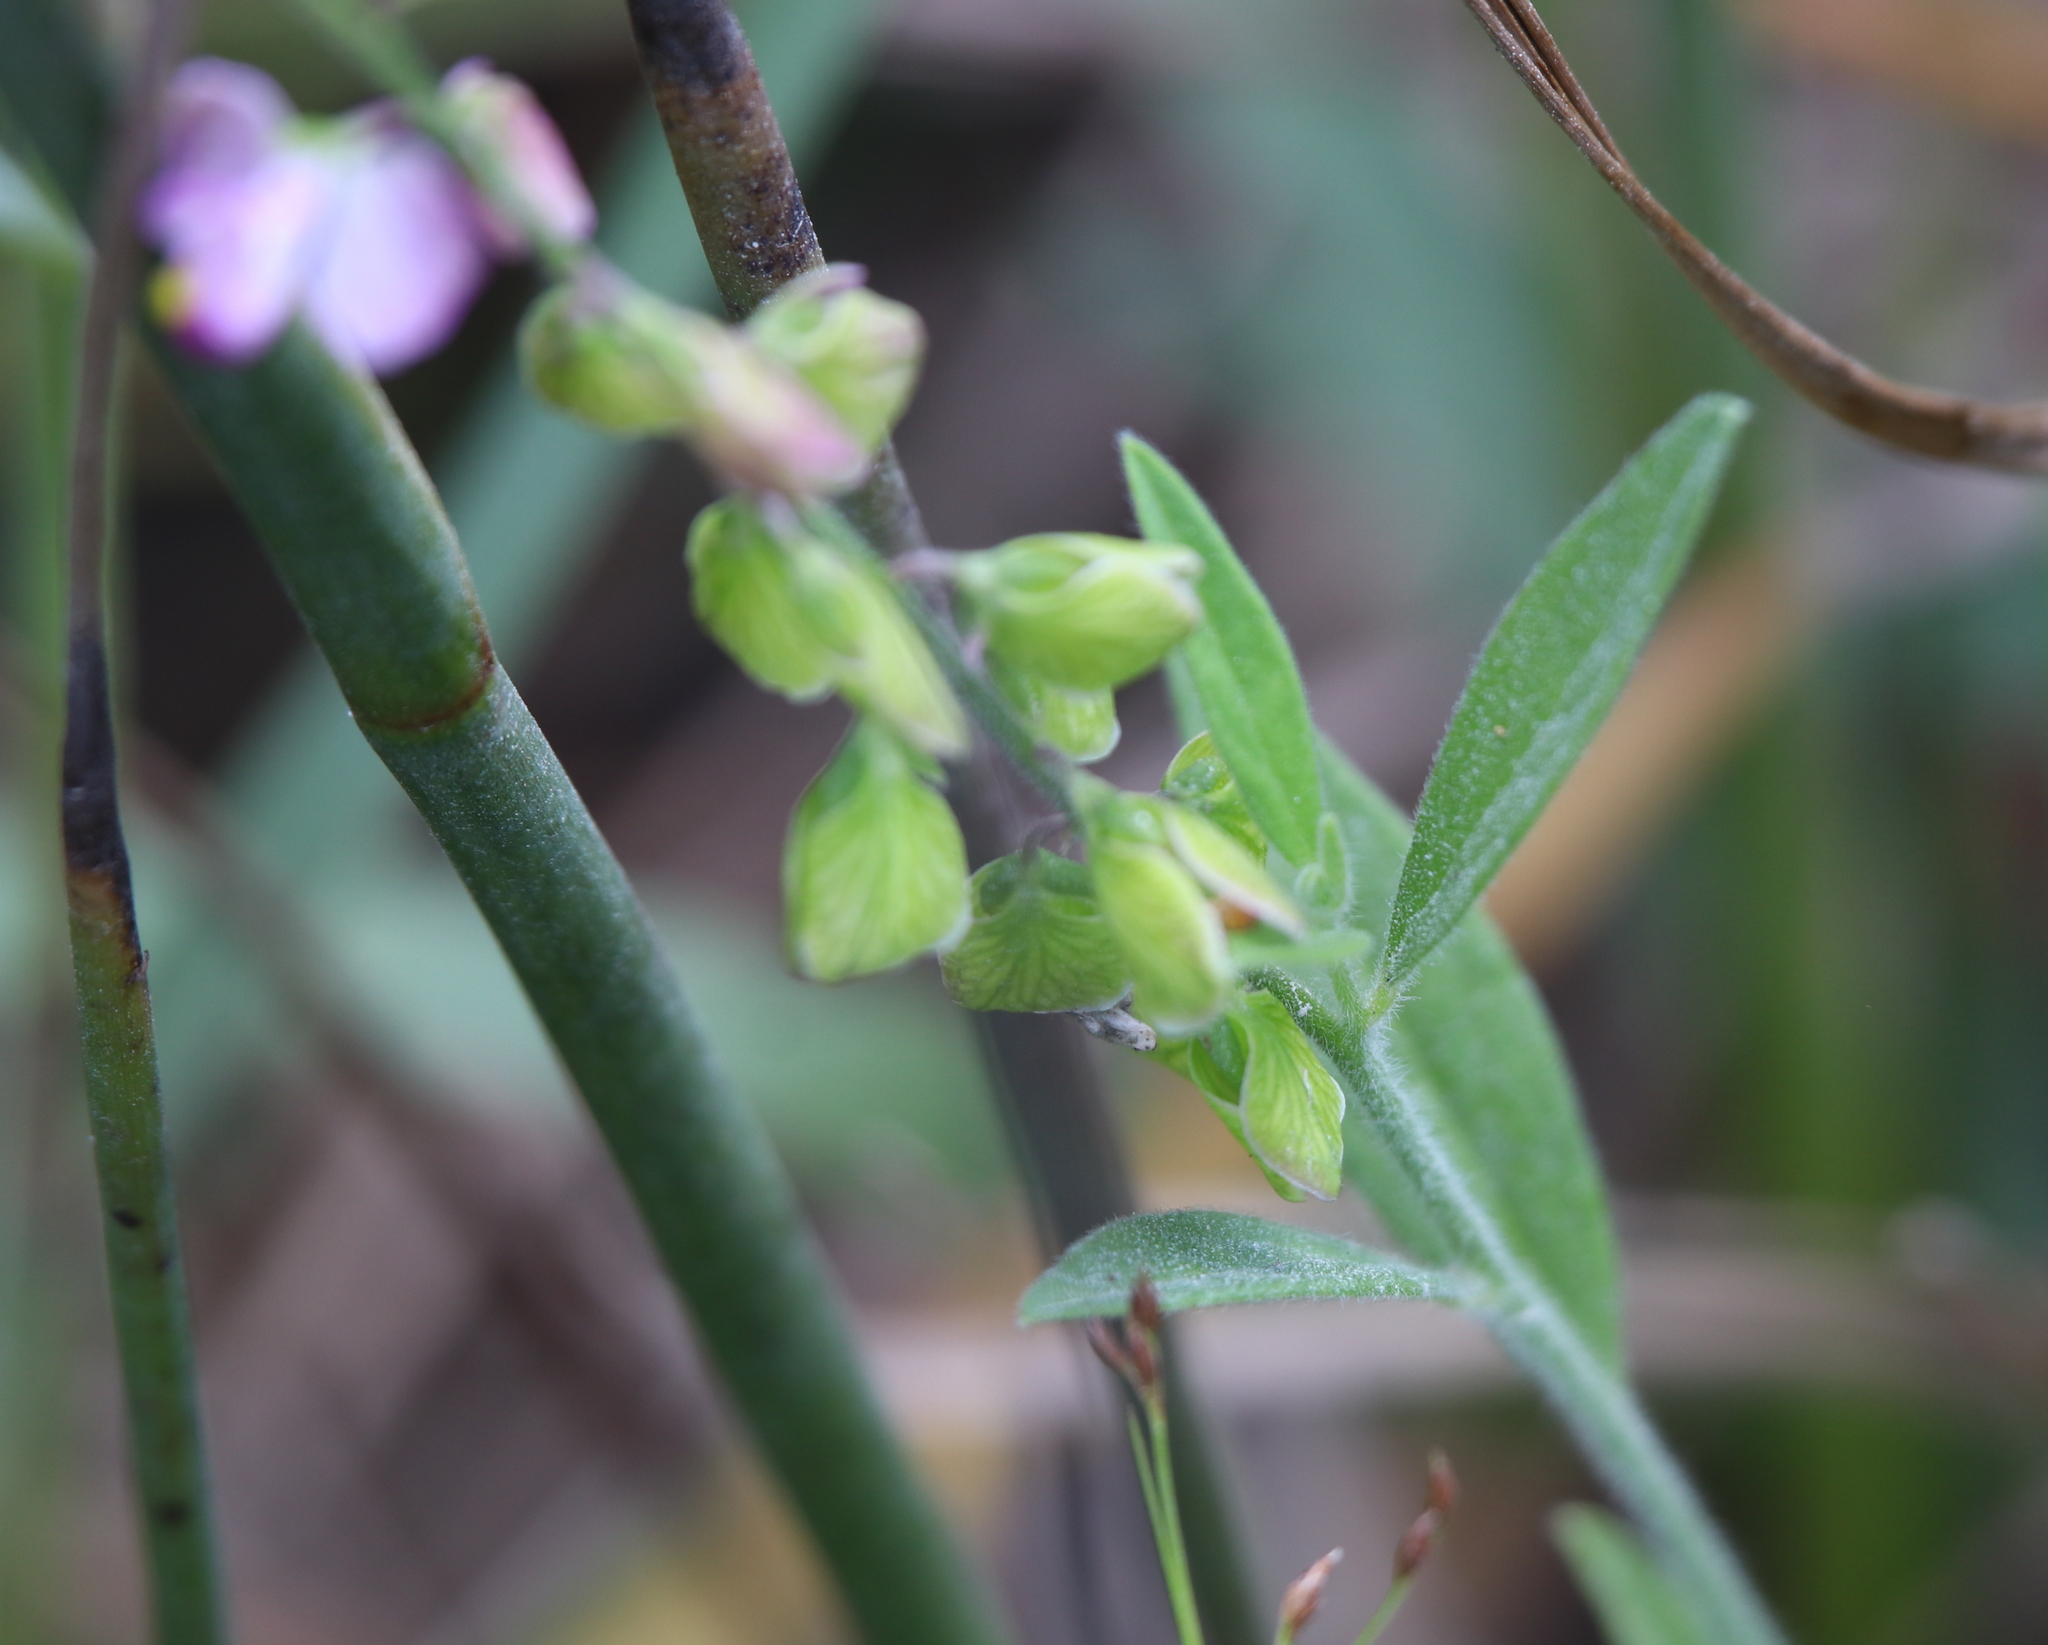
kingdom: Plantae
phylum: Tracheophyta
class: Magnoliopsida
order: Fabales
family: Polygalaceae
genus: Asemeia
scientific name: Asemeia grandiflora
